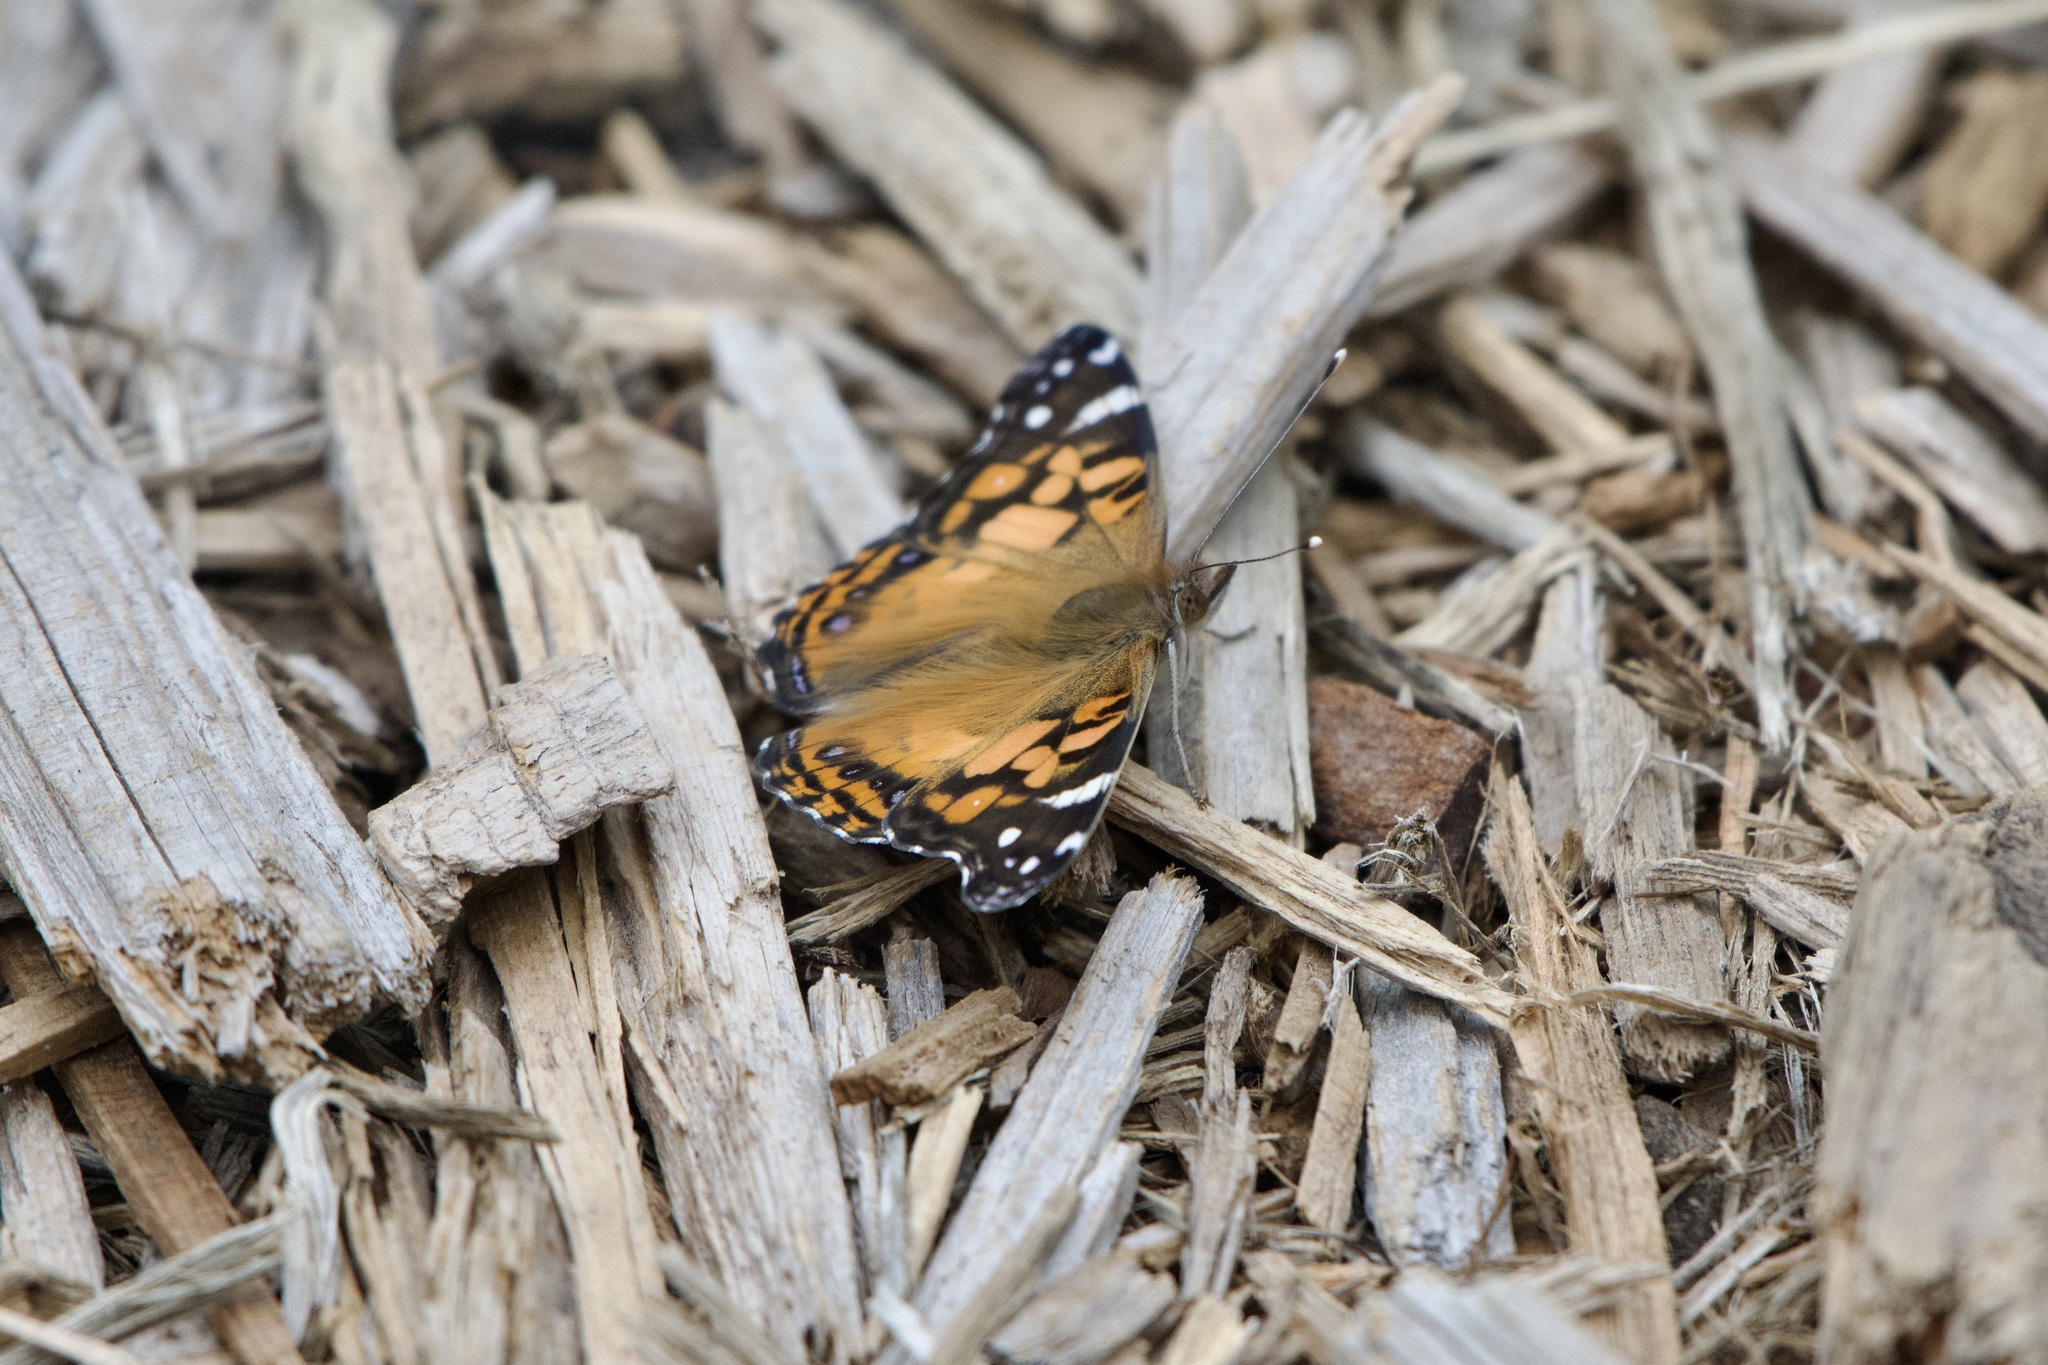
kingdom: Animalia
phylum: Arthropoda
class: Insecta
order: Lepidoptera
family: Nymphalidae
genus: Vanessa
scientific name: Vanessa virginiensis
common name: American lady
